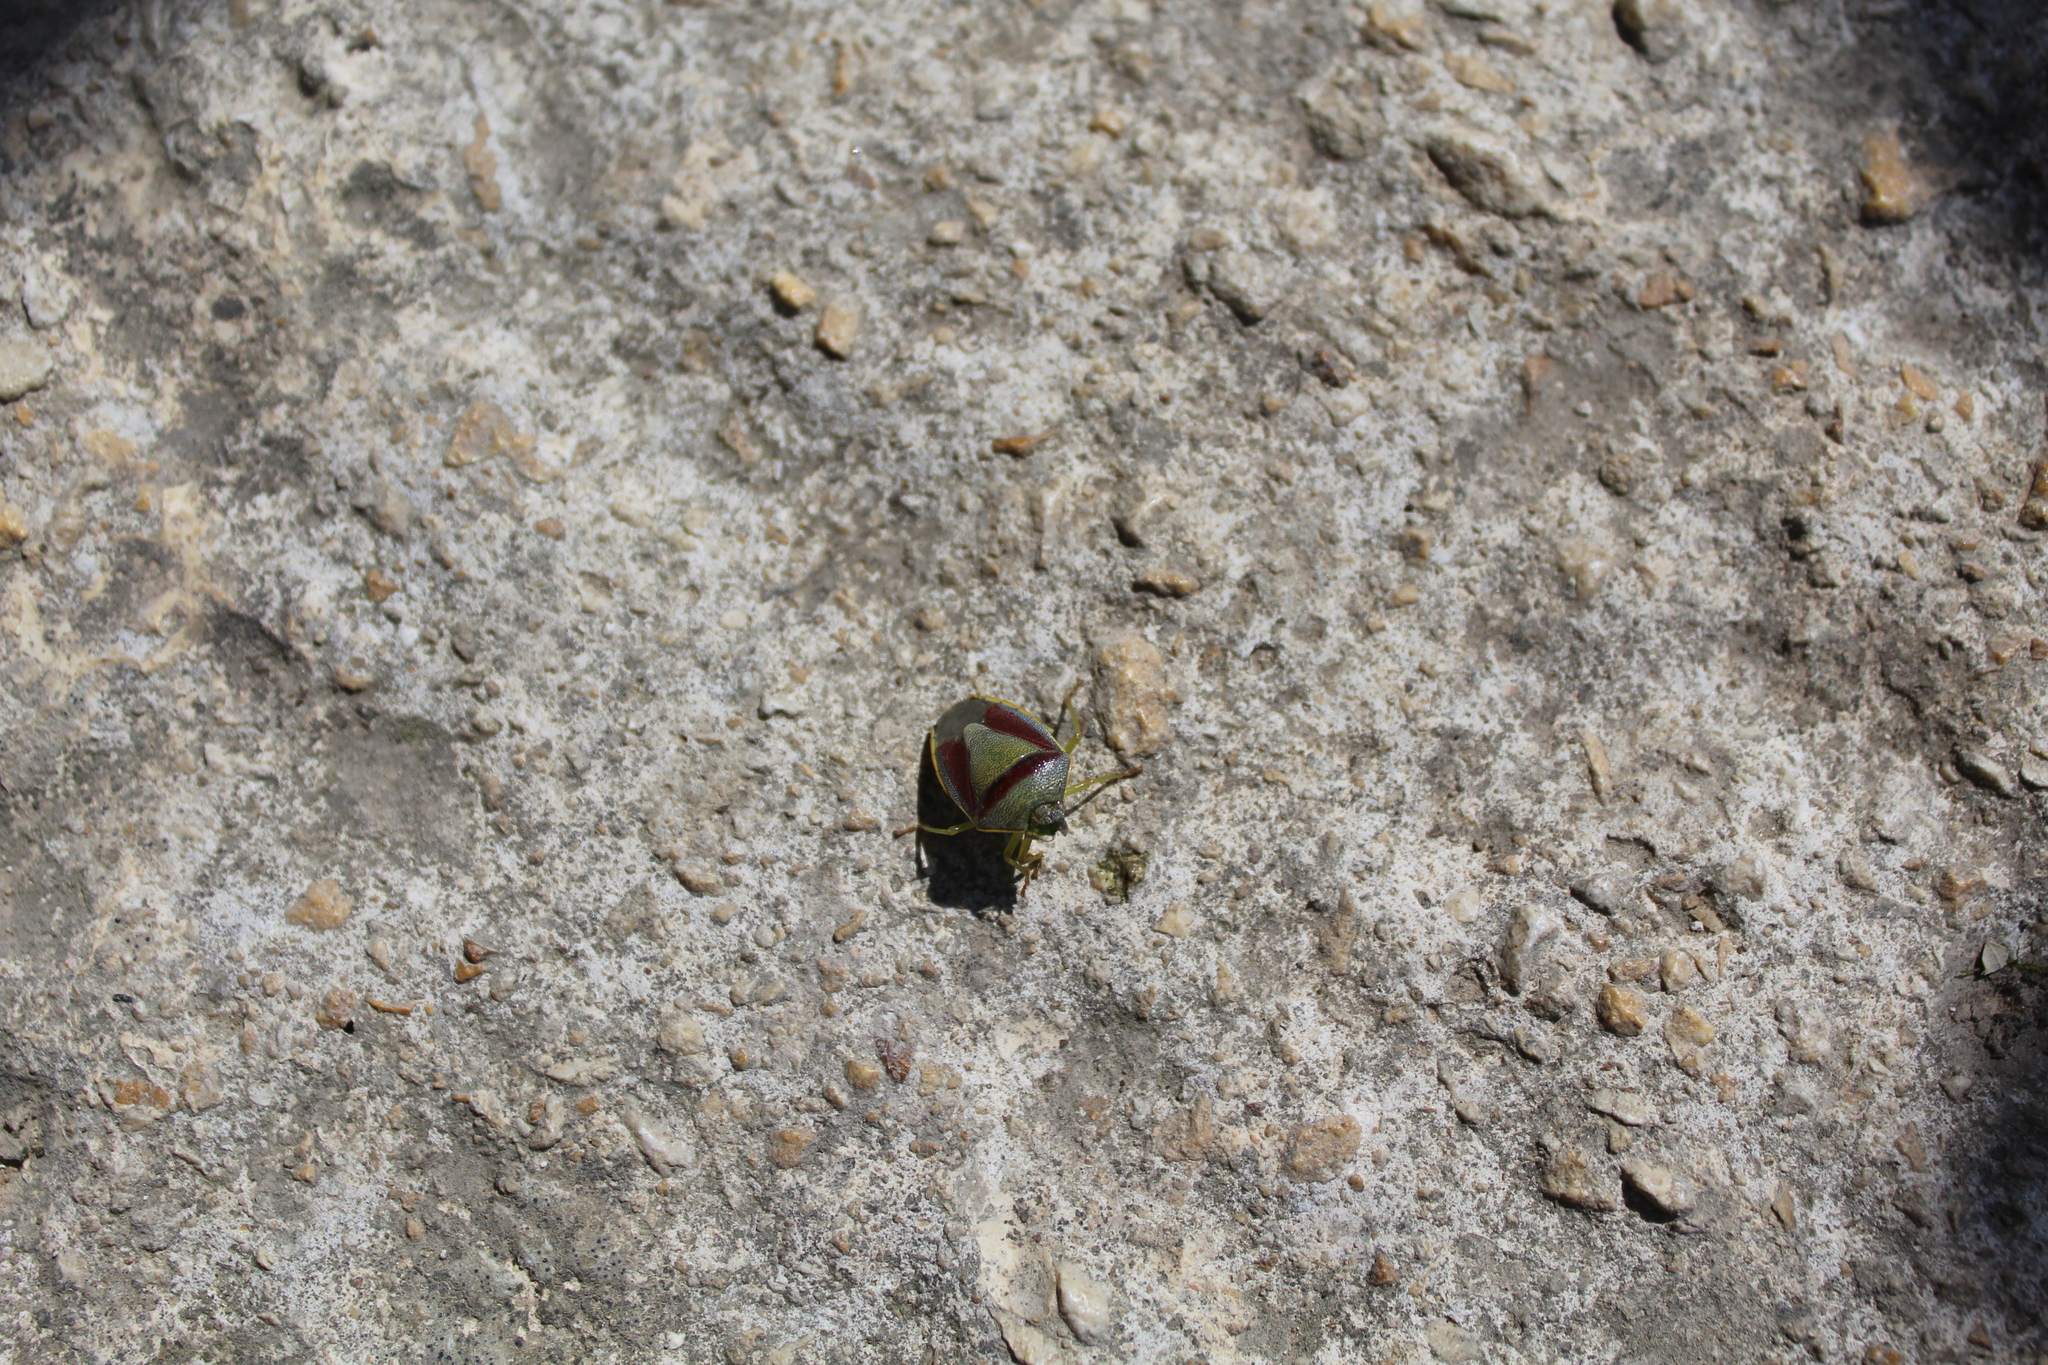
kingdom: Animalia
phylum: Arthropoda
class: Insecta
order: Hemiptera
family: Pentatomidae
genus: Piezodorus
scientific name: Piezodorus lituratus
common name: Stink bug
